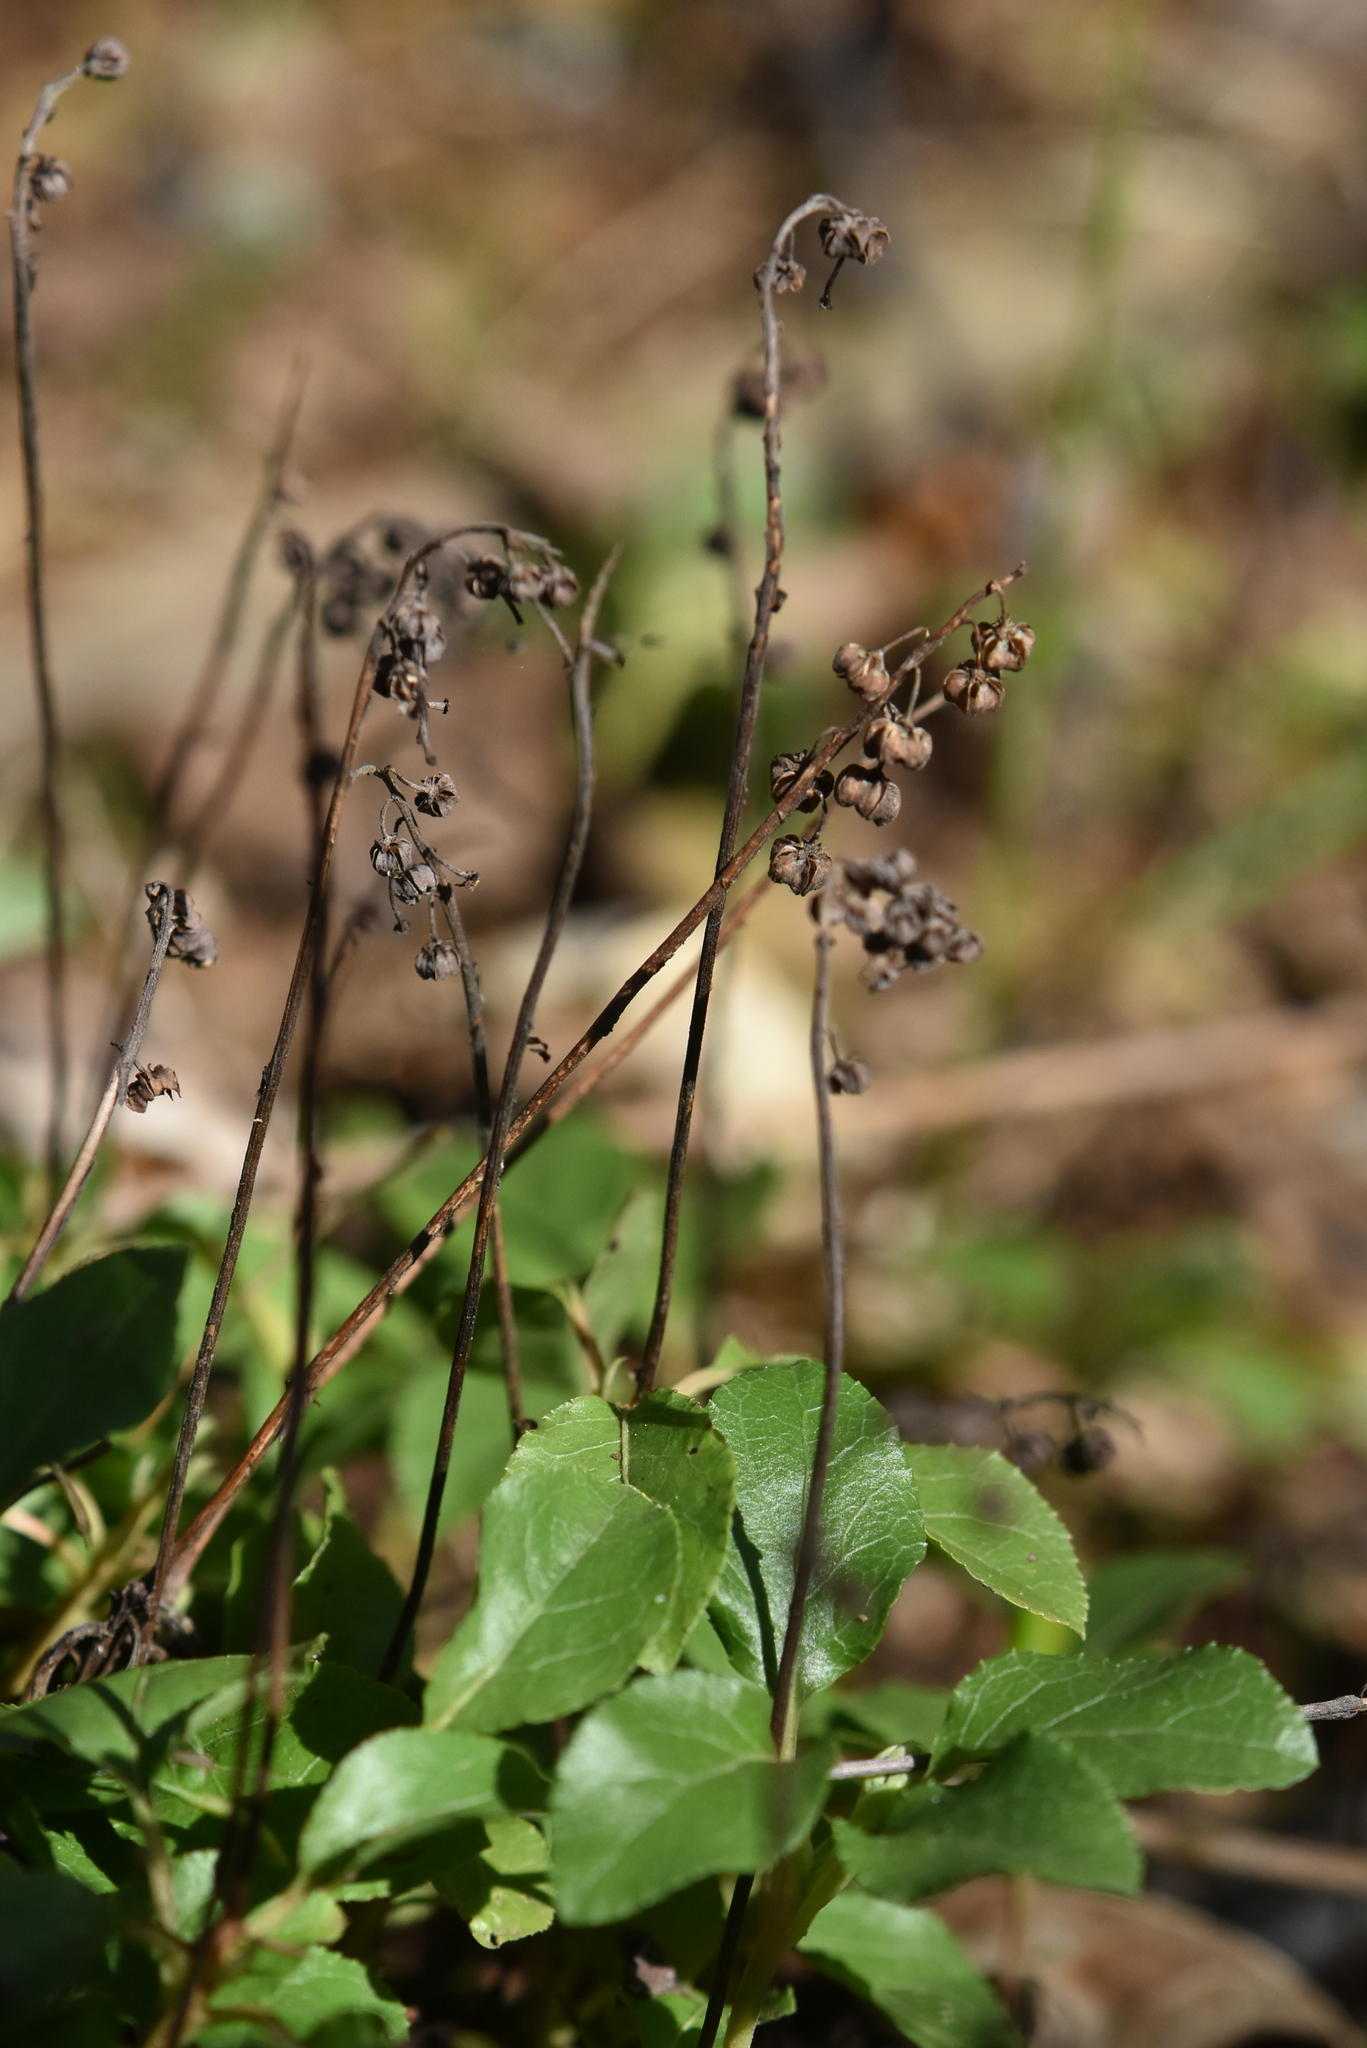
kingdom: Plantae
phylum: Tracheophyta
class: Magnoliopsida
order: Ericales
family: Ericaceae
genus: Orthilia
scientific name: Orthilia secunda
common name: One-sided orthilia
